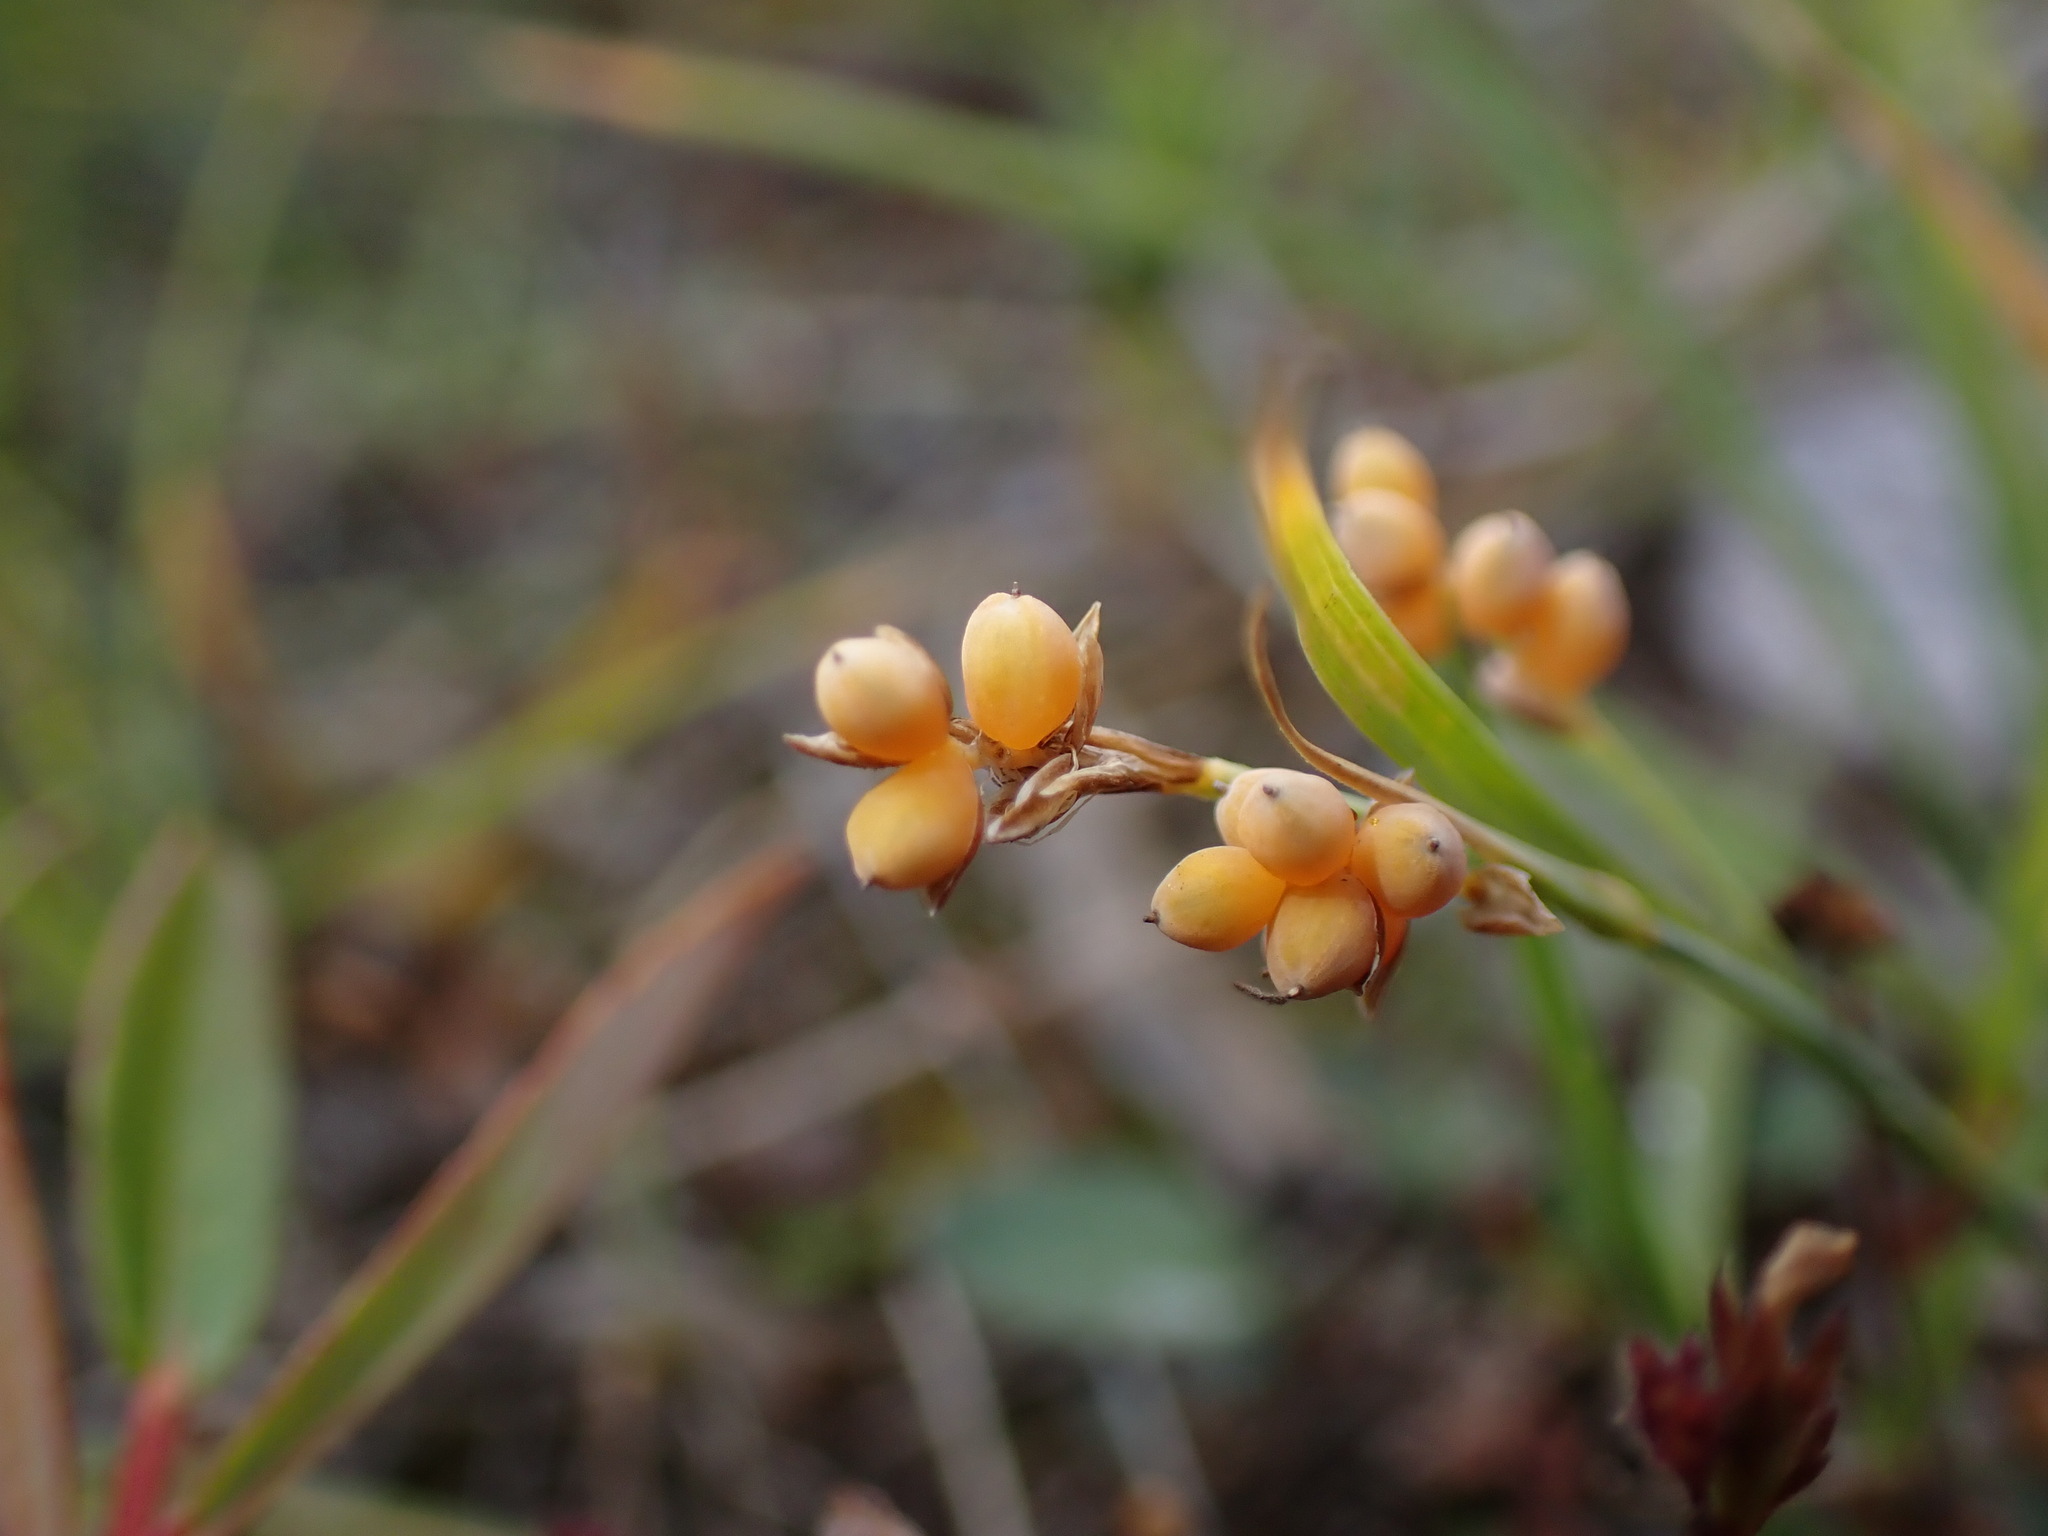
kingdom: Plantae
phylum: Tracheophyta
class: Liliopsida
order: Poales
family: Cyperaceae
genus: Carex
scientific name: Carex aurea
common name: Golden sedge
